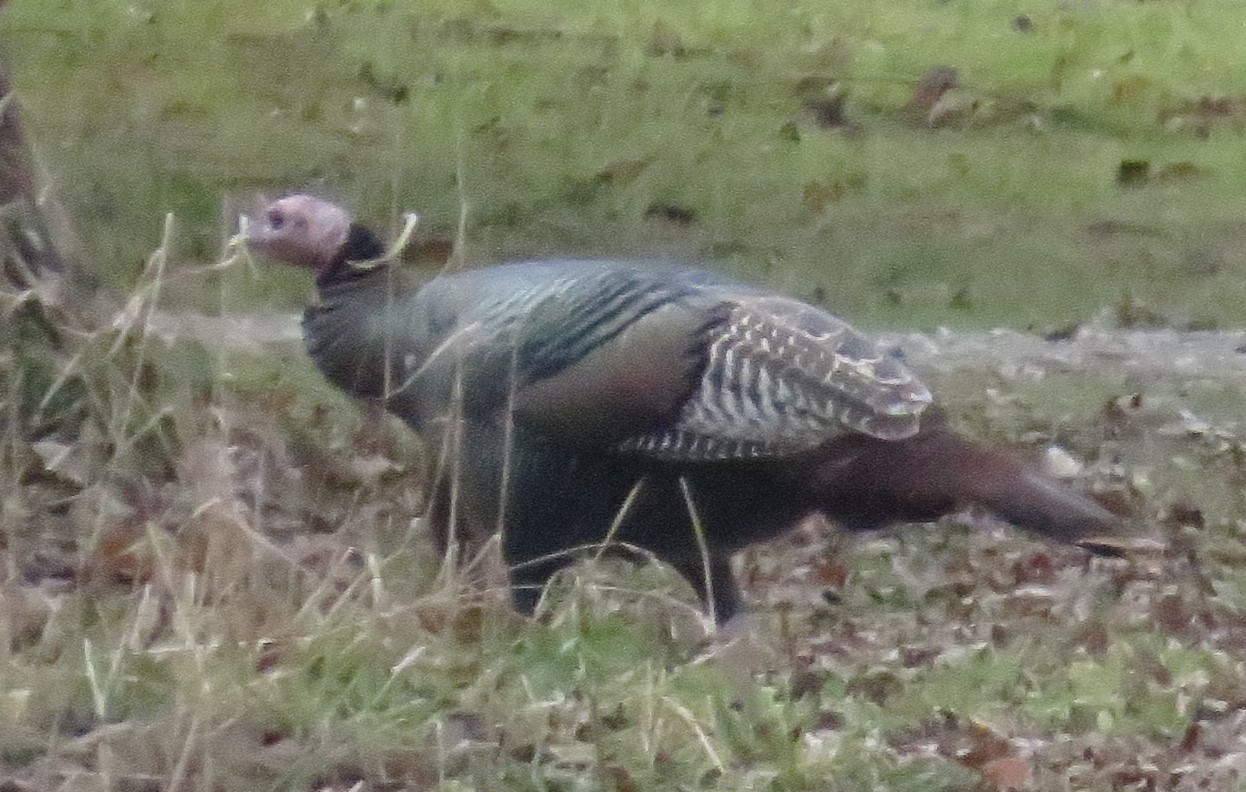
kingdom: Animalia
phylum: Chordata
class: Aves
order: Galliformes
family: Phasianidae
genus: Meleagris
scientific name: Meleagris gallopavo
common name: Wild turkey
